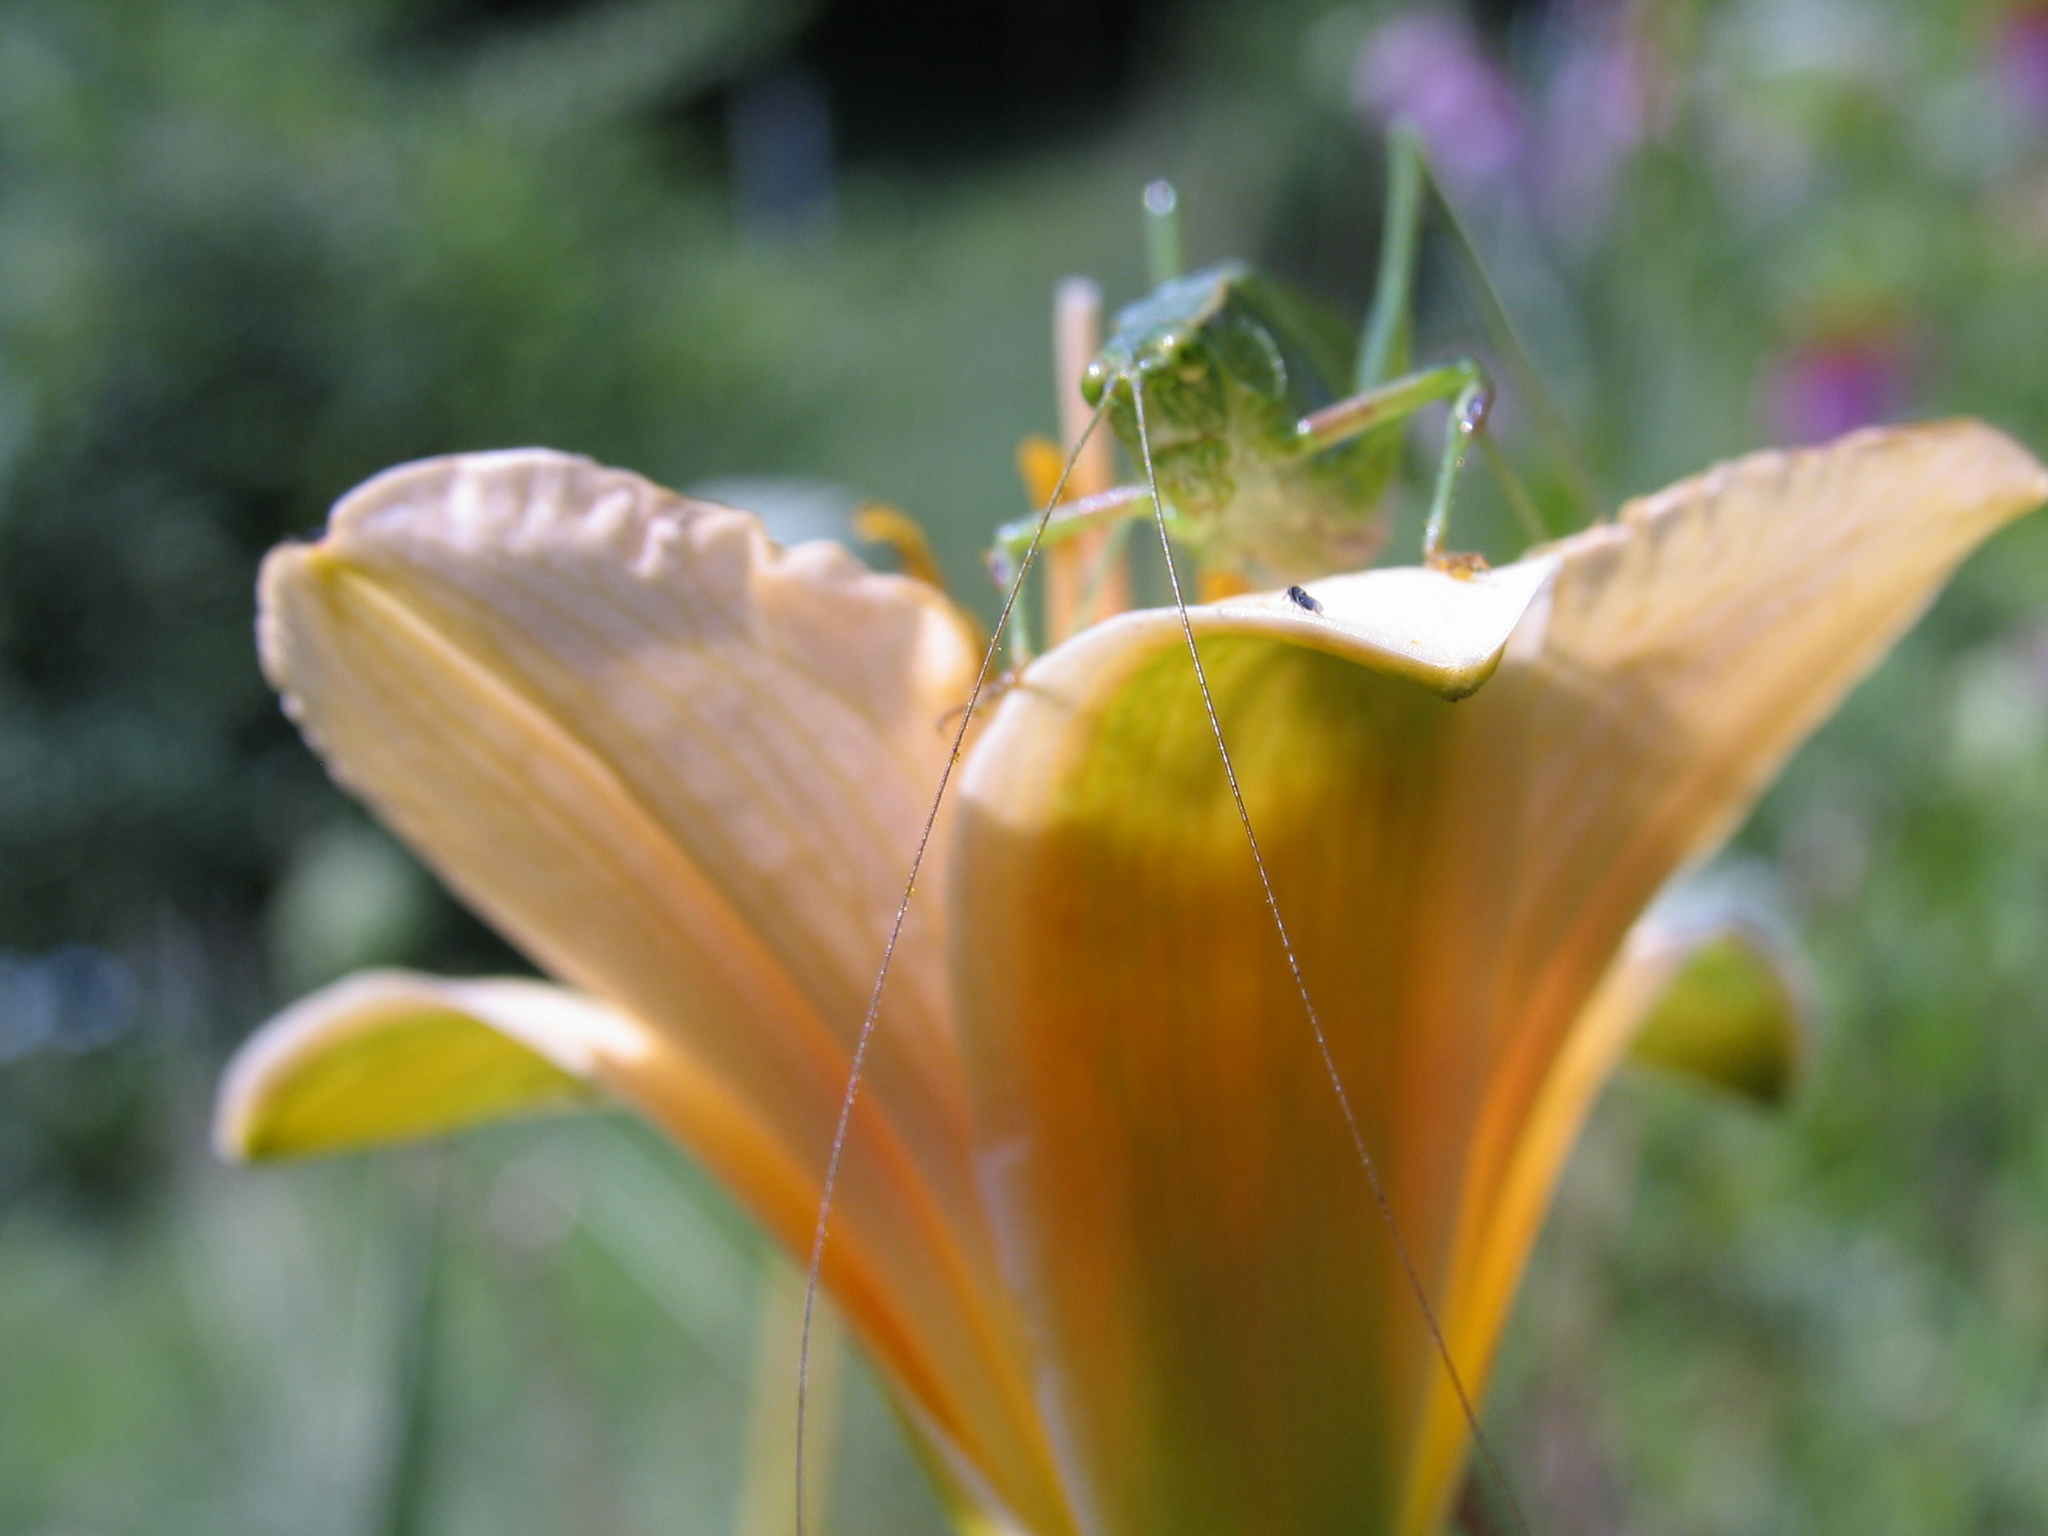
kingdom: Animalia
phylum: Arthropoda
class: Insecta
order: Orthoptera
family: Tettigoniidae
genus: Scudderia
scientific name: Scudderia furcata
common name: Fork-tailed bush katydid
